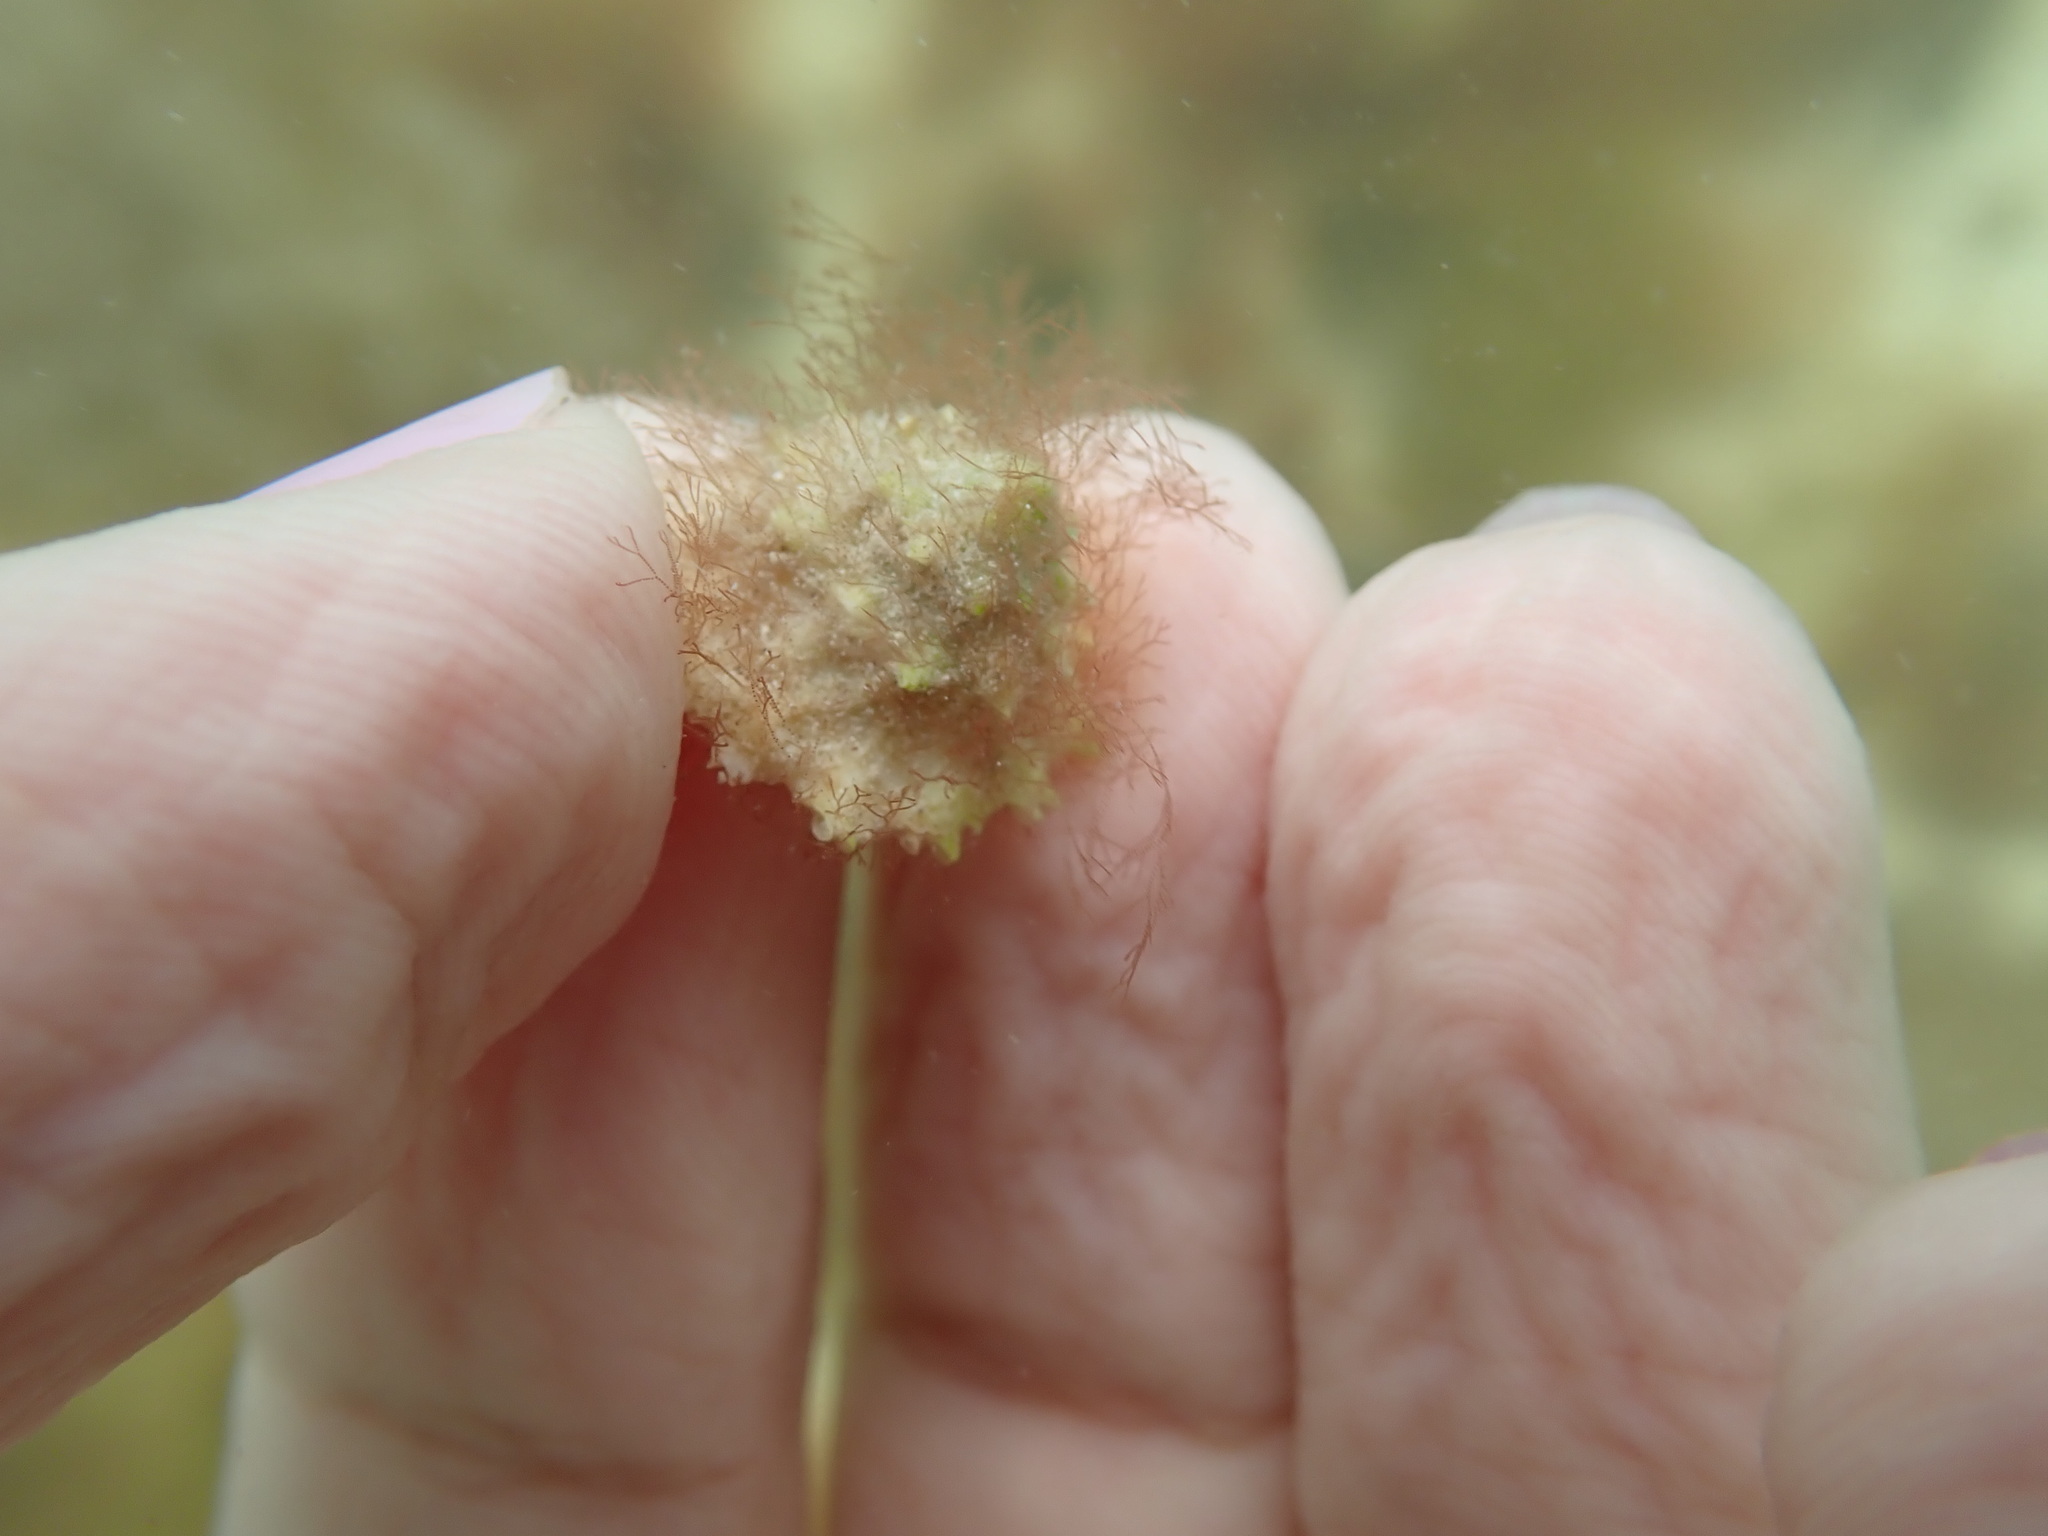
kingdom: Animalia
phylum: Mollusca
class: Gastropoda
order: Trochida
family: Turbinidae
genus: Lithopoma
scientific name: Lithopoma phoebium
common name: Long-spined starsnail
